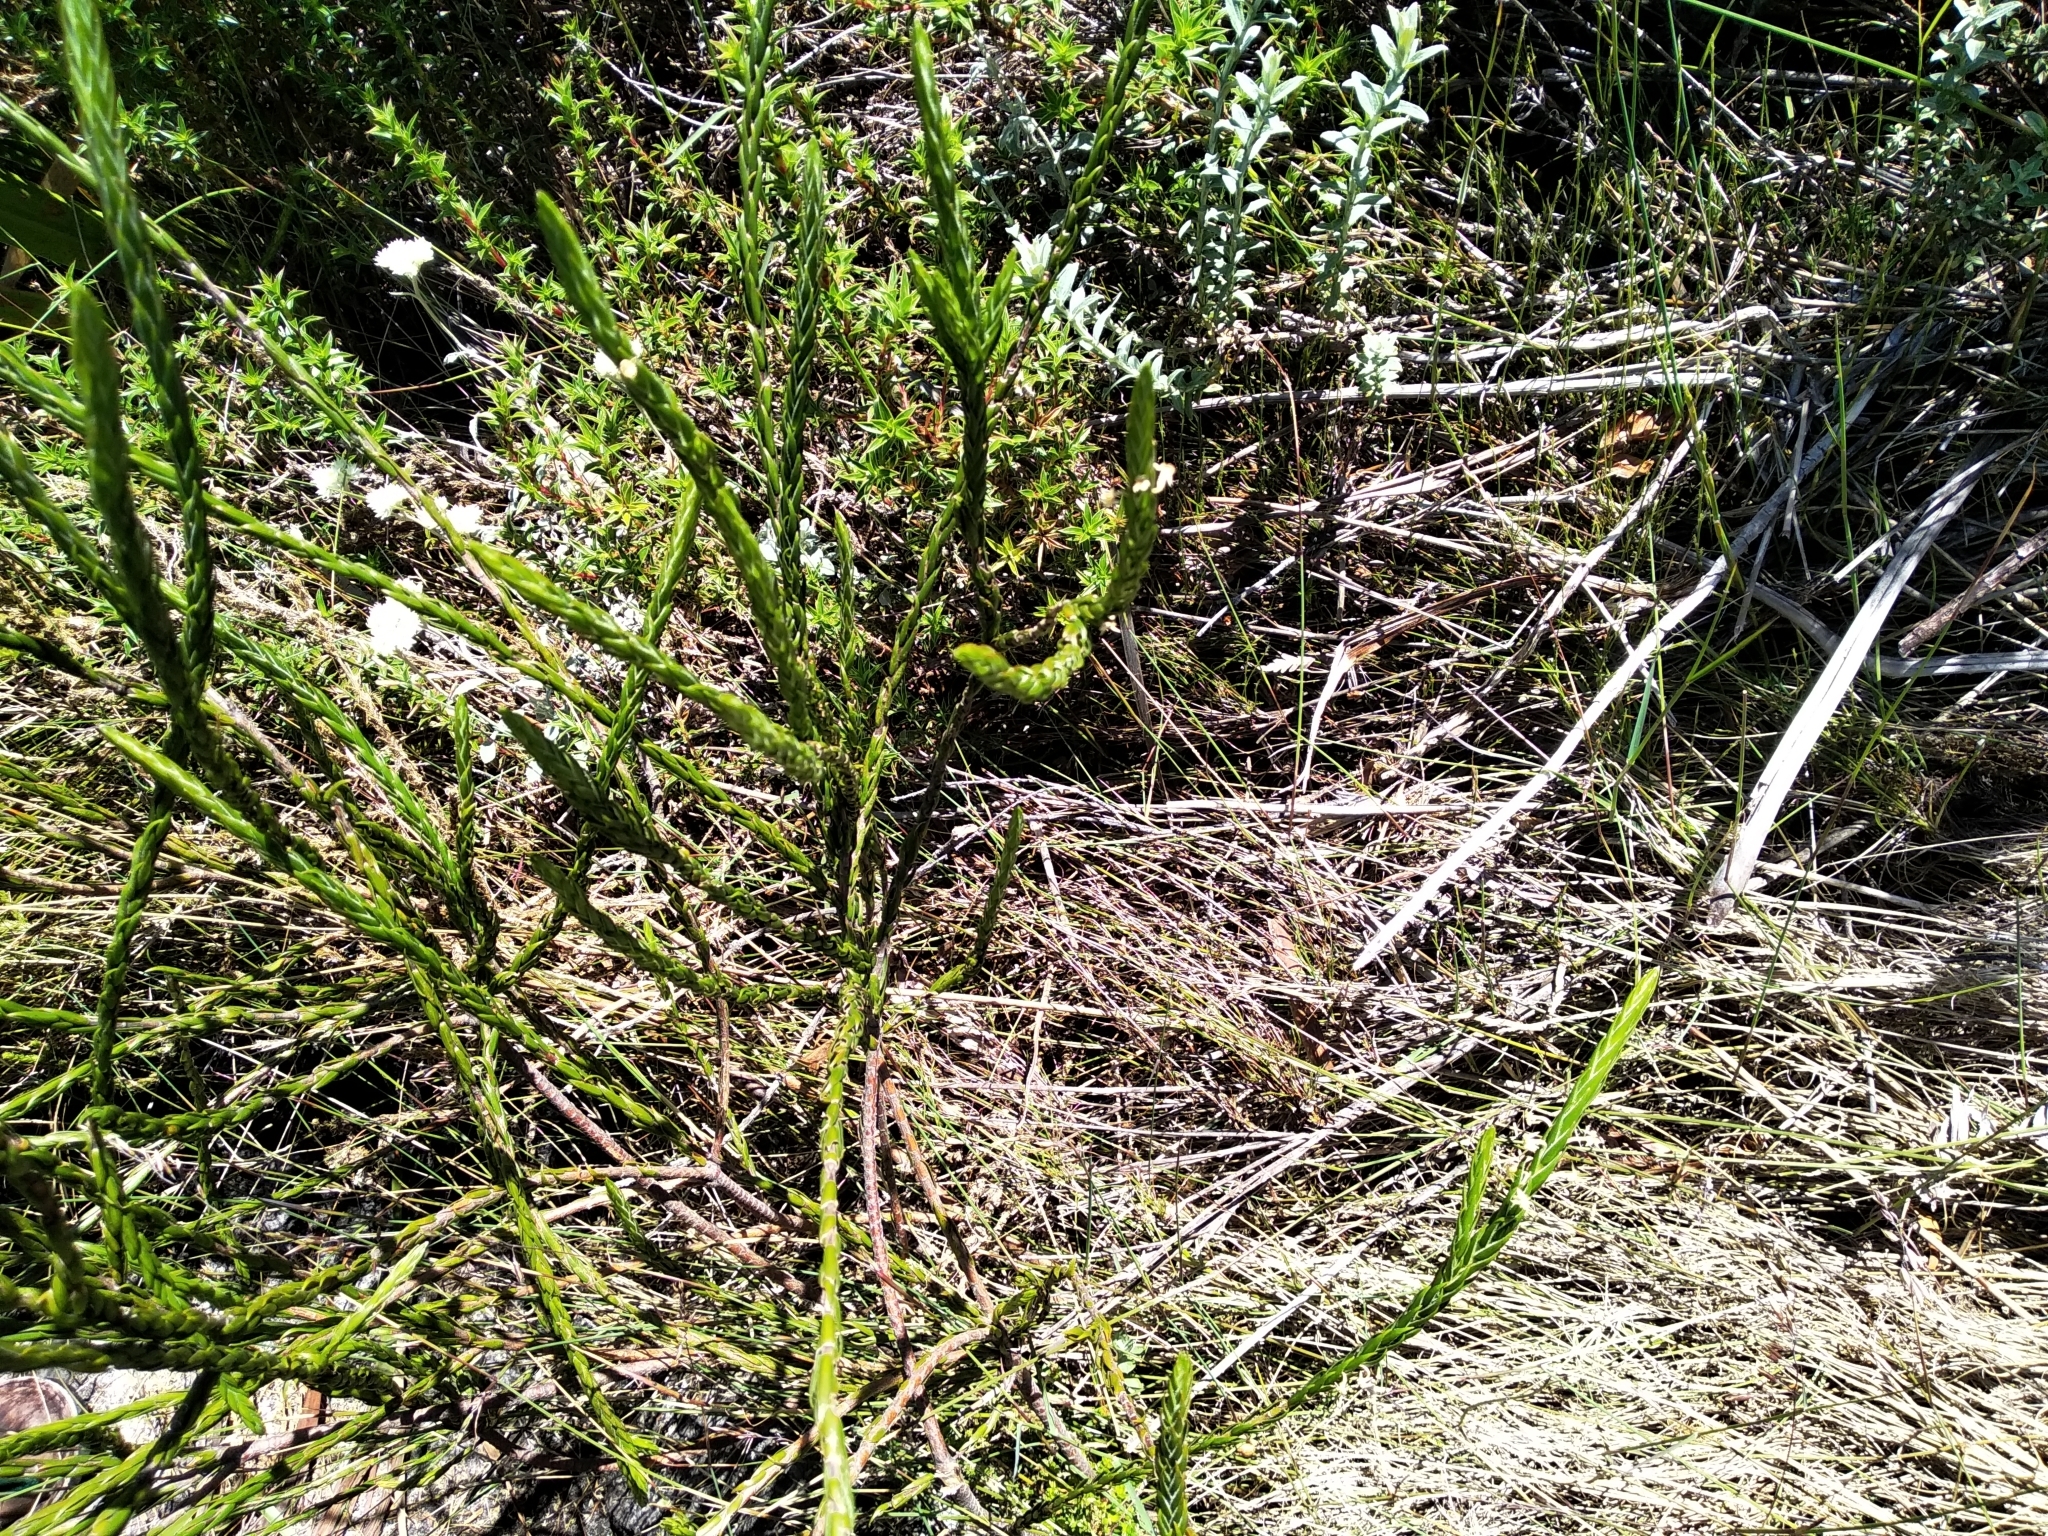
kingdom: Plantae
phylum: Tracheophyta
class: Magnoliopsida
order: Malvales
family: Thymelaeaceae
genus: Struthiola
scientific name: Struthiola ciliata
